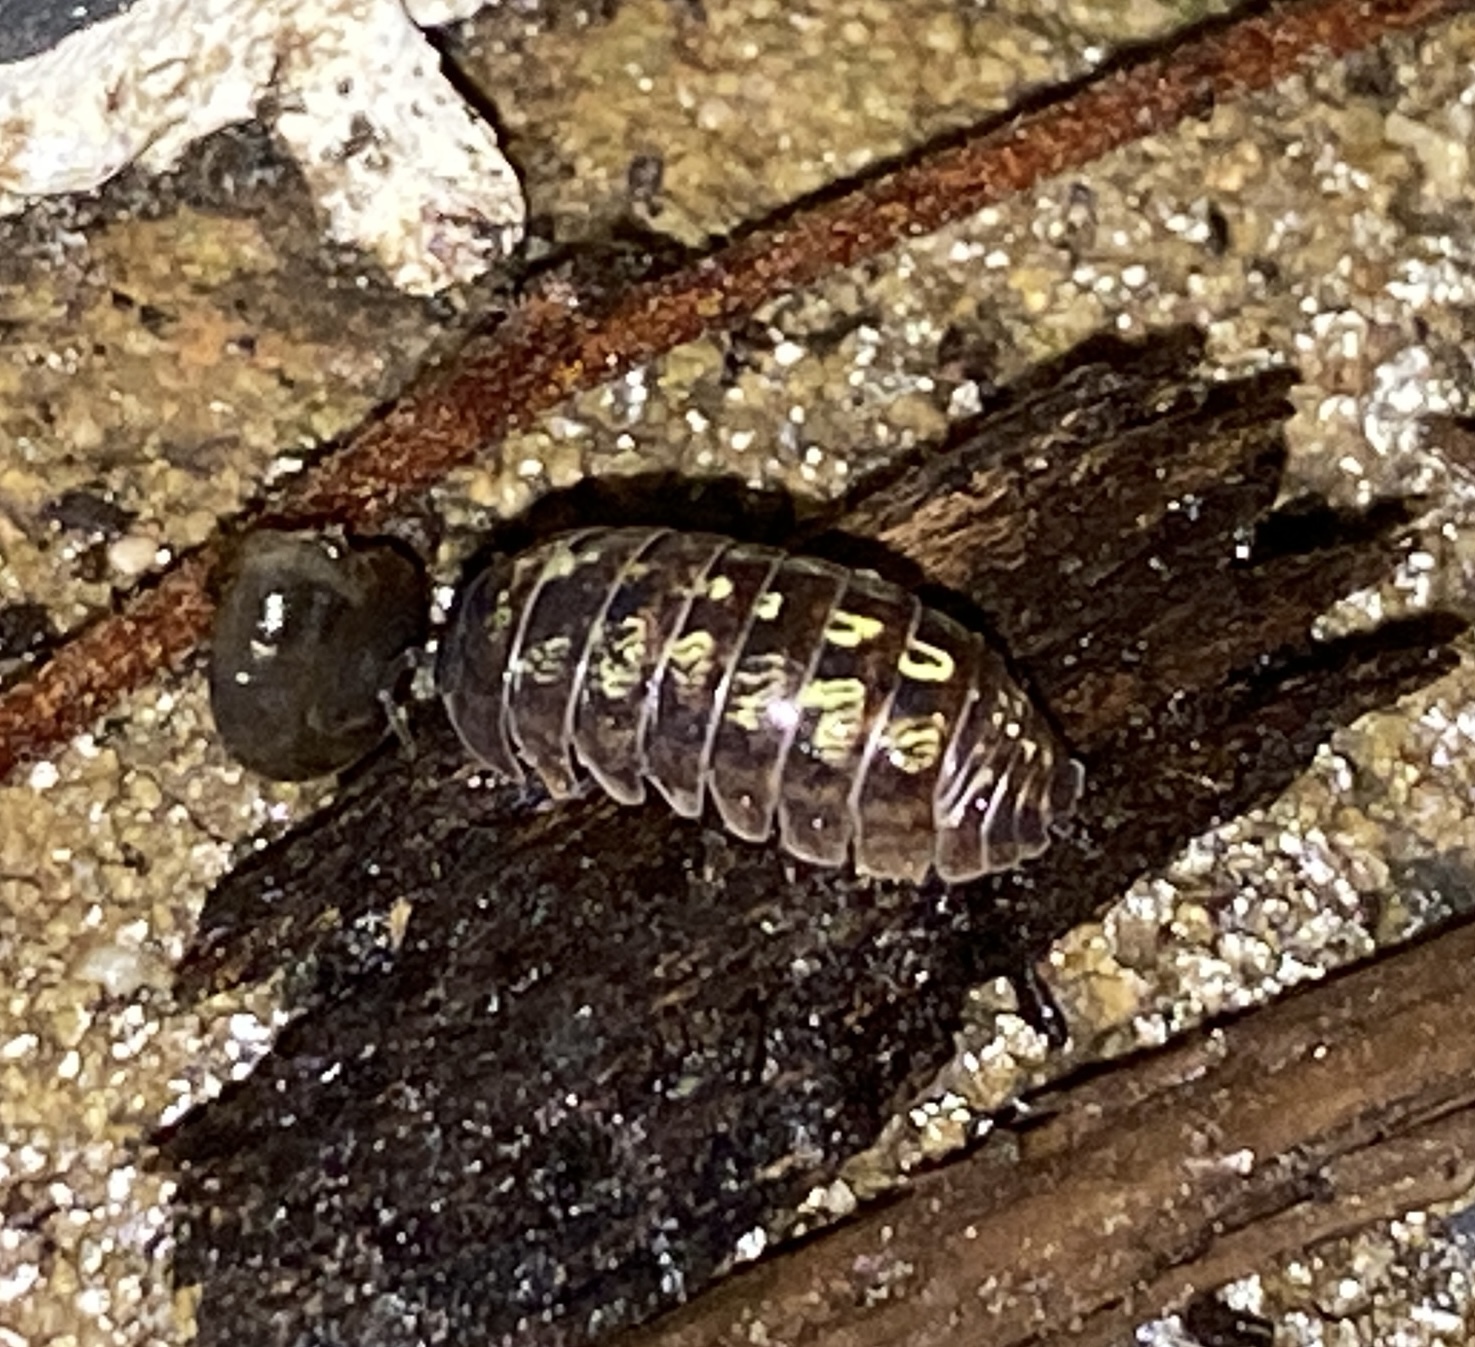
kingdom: Animalia
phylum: Arthropoda
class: Malacostraca
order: Isopoda
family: Armadillidiidae
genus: Armadillidium
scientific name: Armadillidium vulgare
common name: Common pill woodlouse
